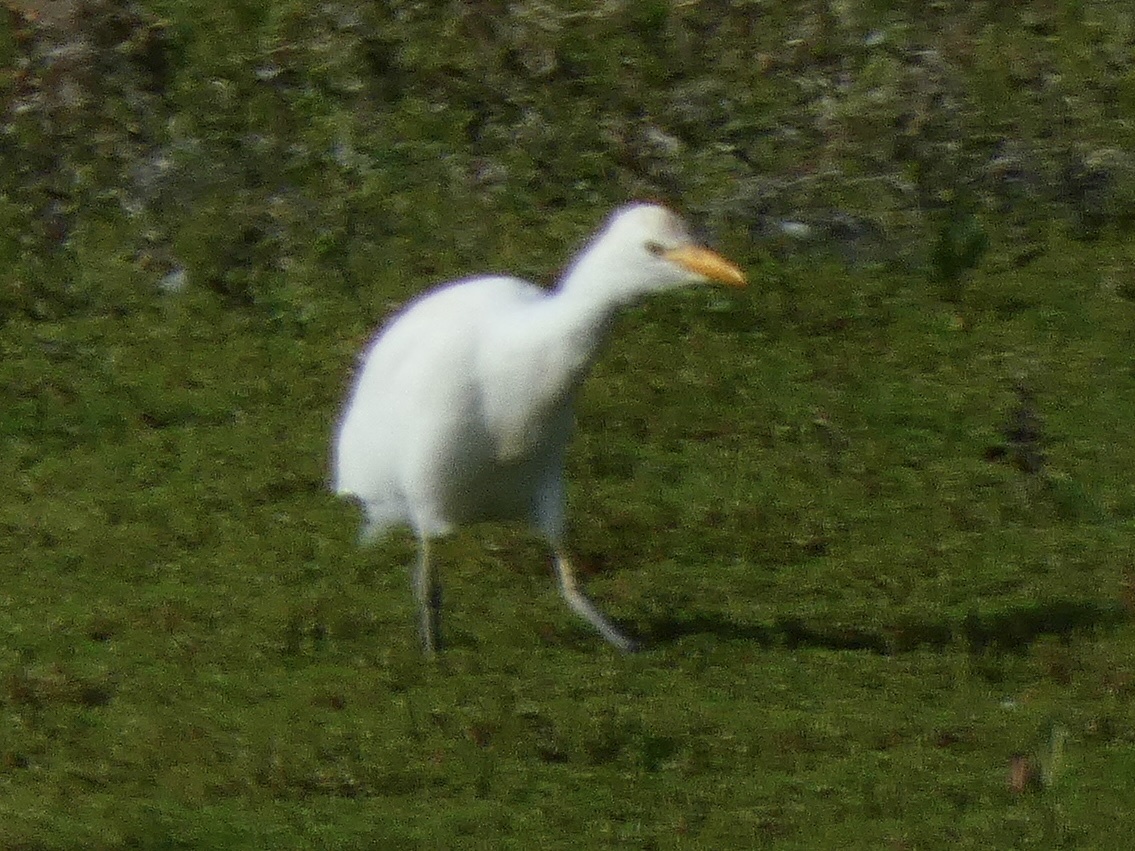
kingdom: Animalia
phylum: Chordata
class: Aves
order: Pelecaniformes
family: Ardeidae
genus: Bubulcus
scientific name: Bubulcus ibis
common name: Cattle egret
